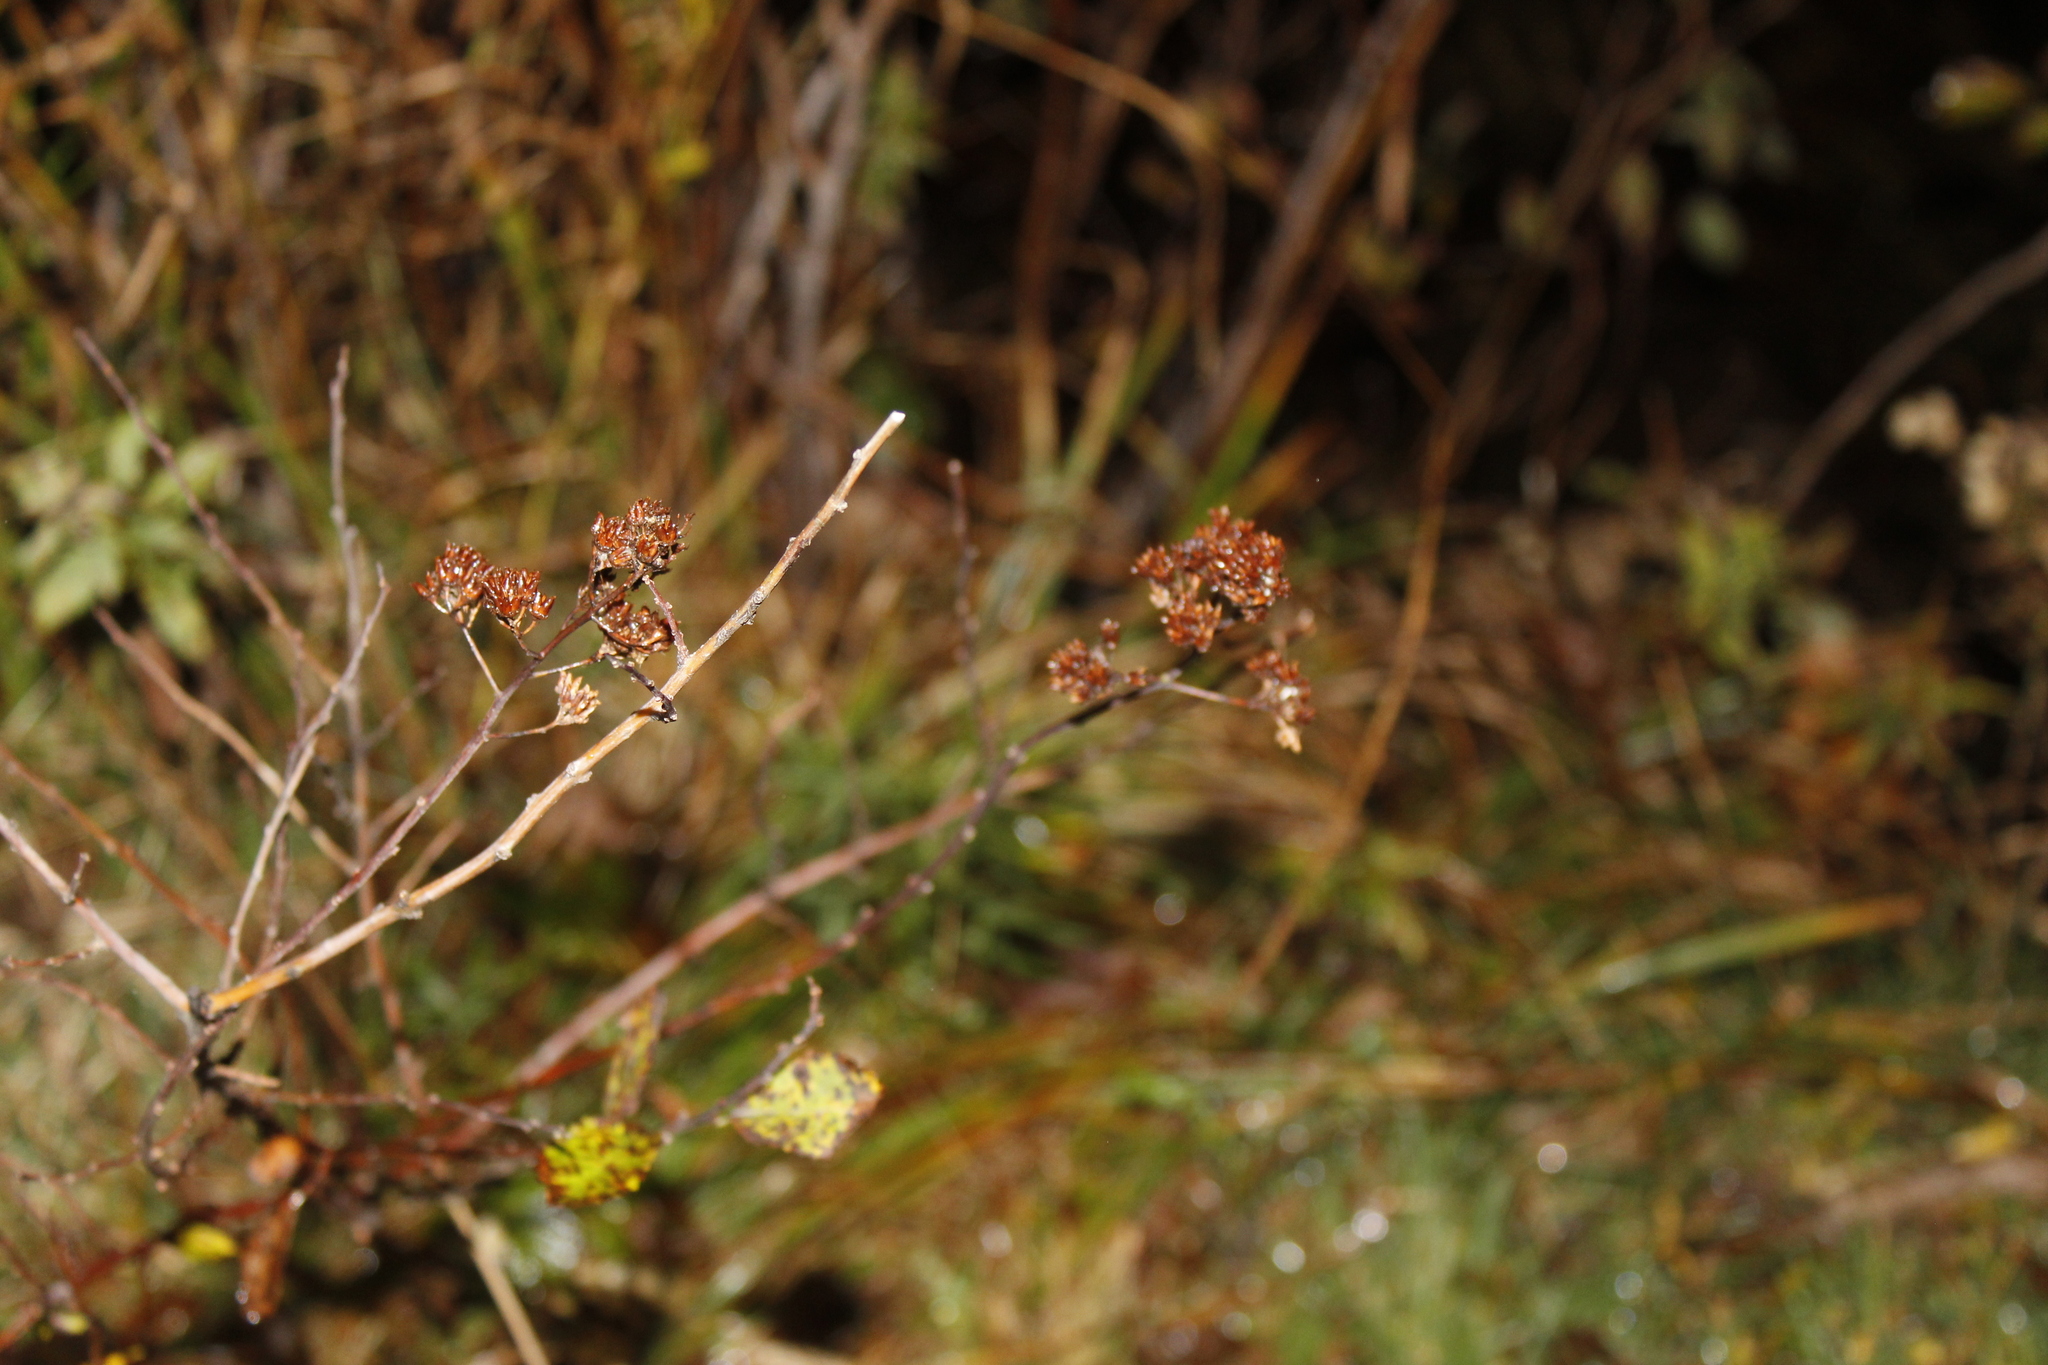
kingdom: Plantae
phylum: Tracheophyta
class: Magnoliopsida
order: Rosales
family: Rosaceae
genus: Spiraea
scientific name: Spiraea alba
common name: Pale bridewort
